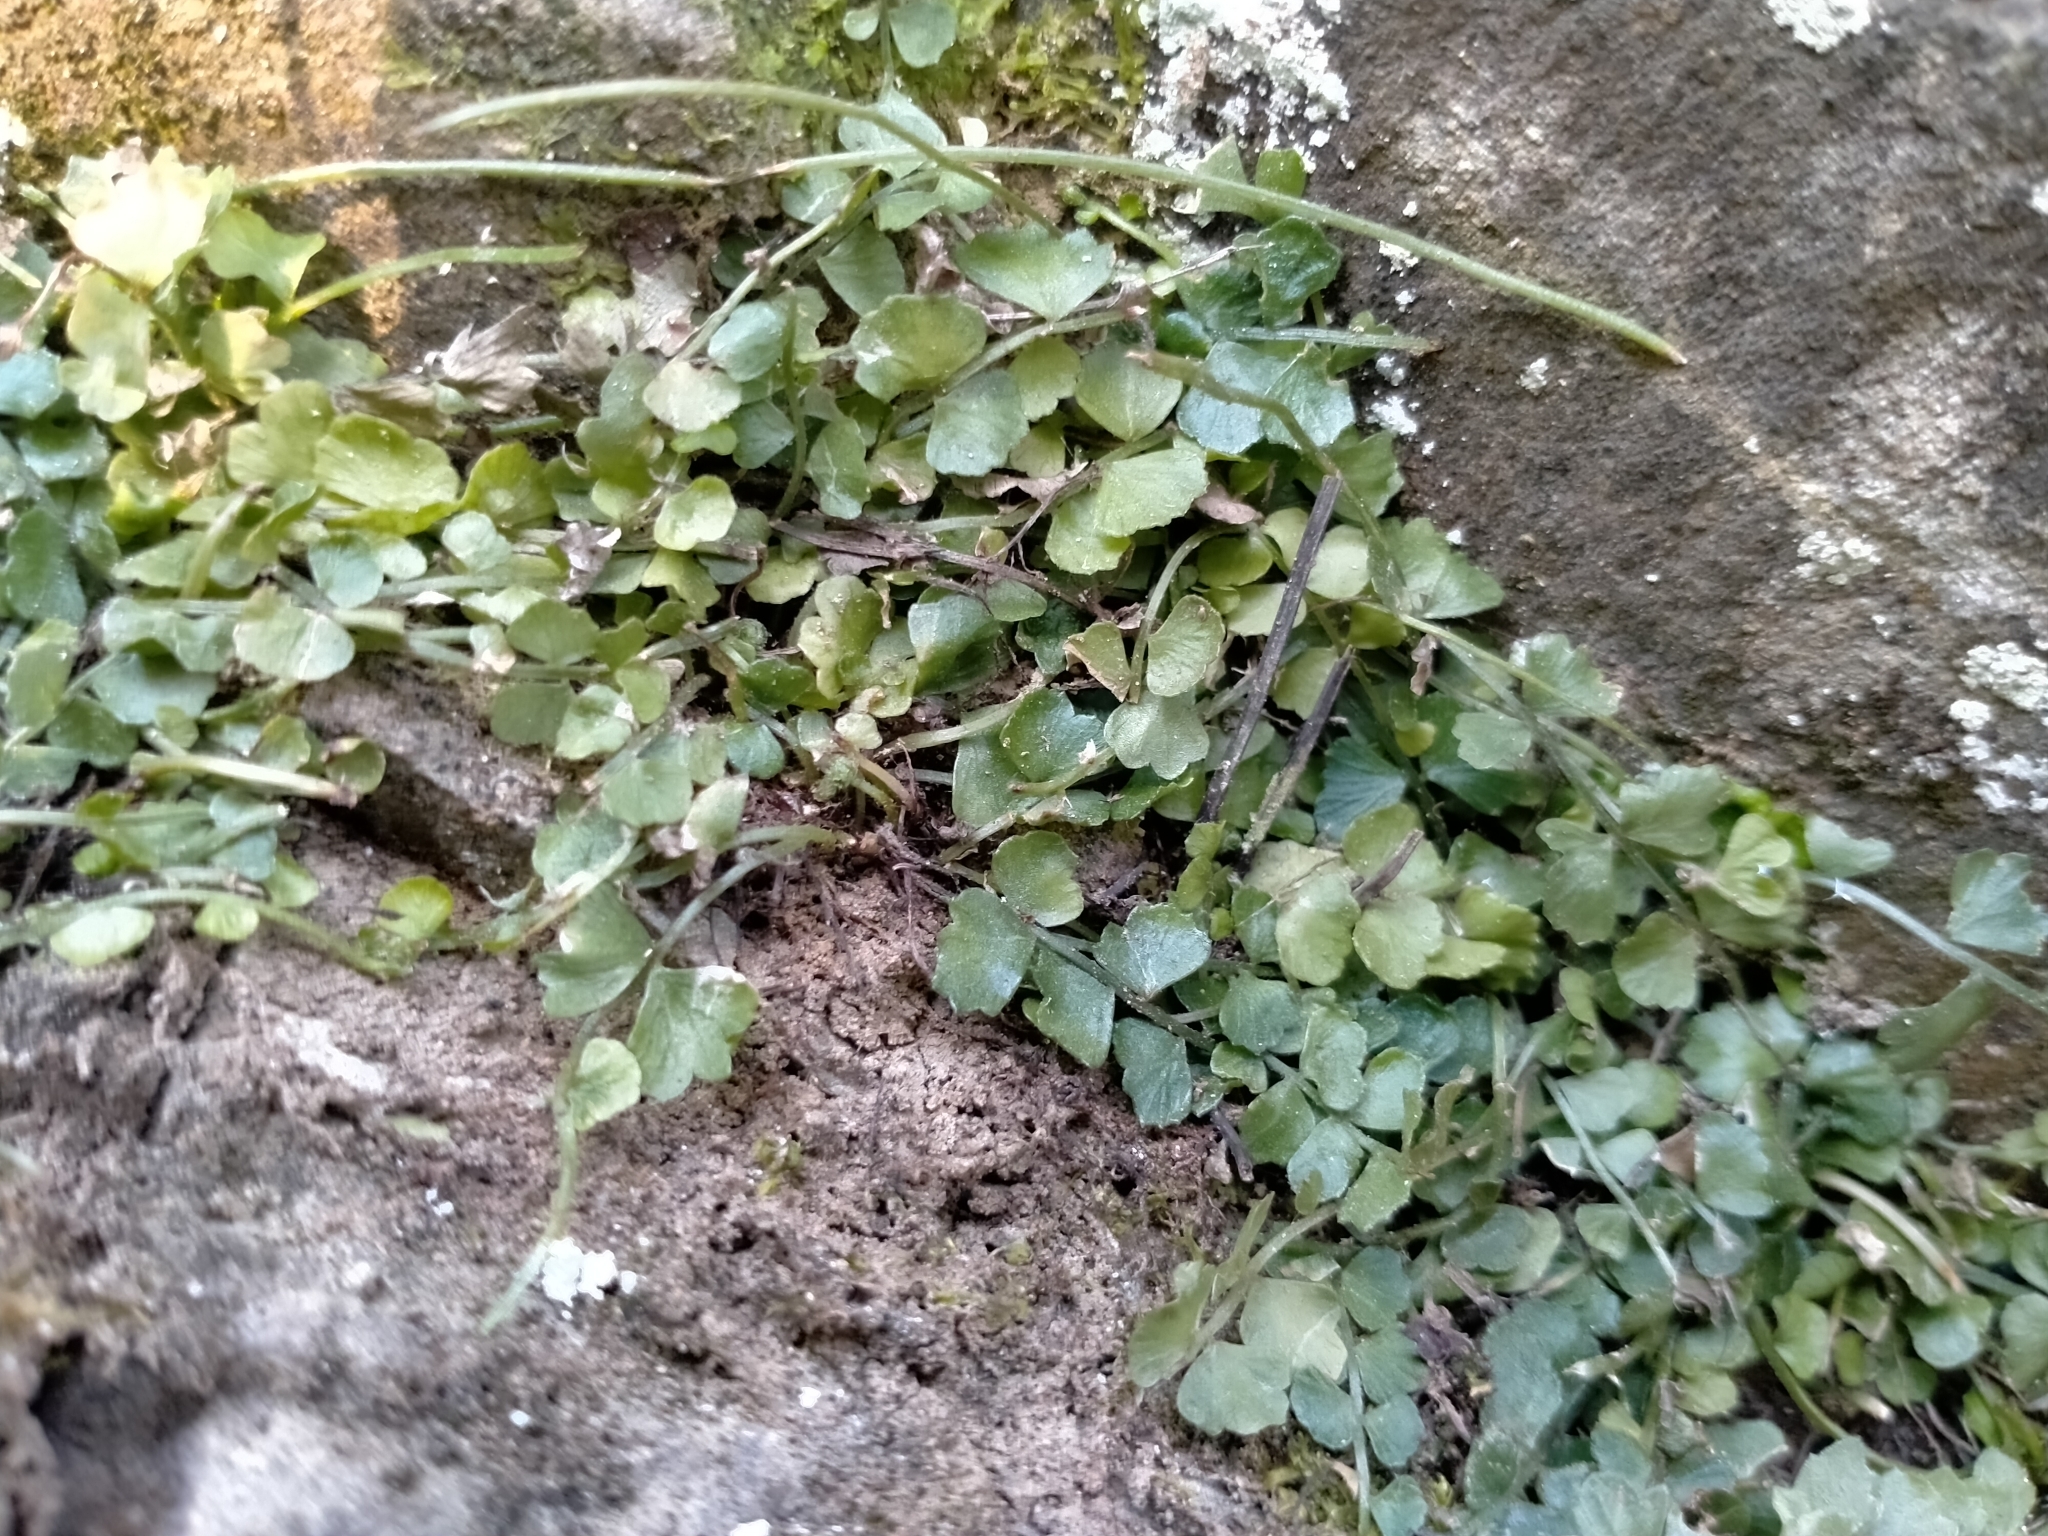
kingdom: Plantae
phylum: Tracheophyta
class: Polypodiopsida
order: Polypodiales
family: Aspleniaceae
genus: Asplenium
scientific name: Asplenium flabellifolium
